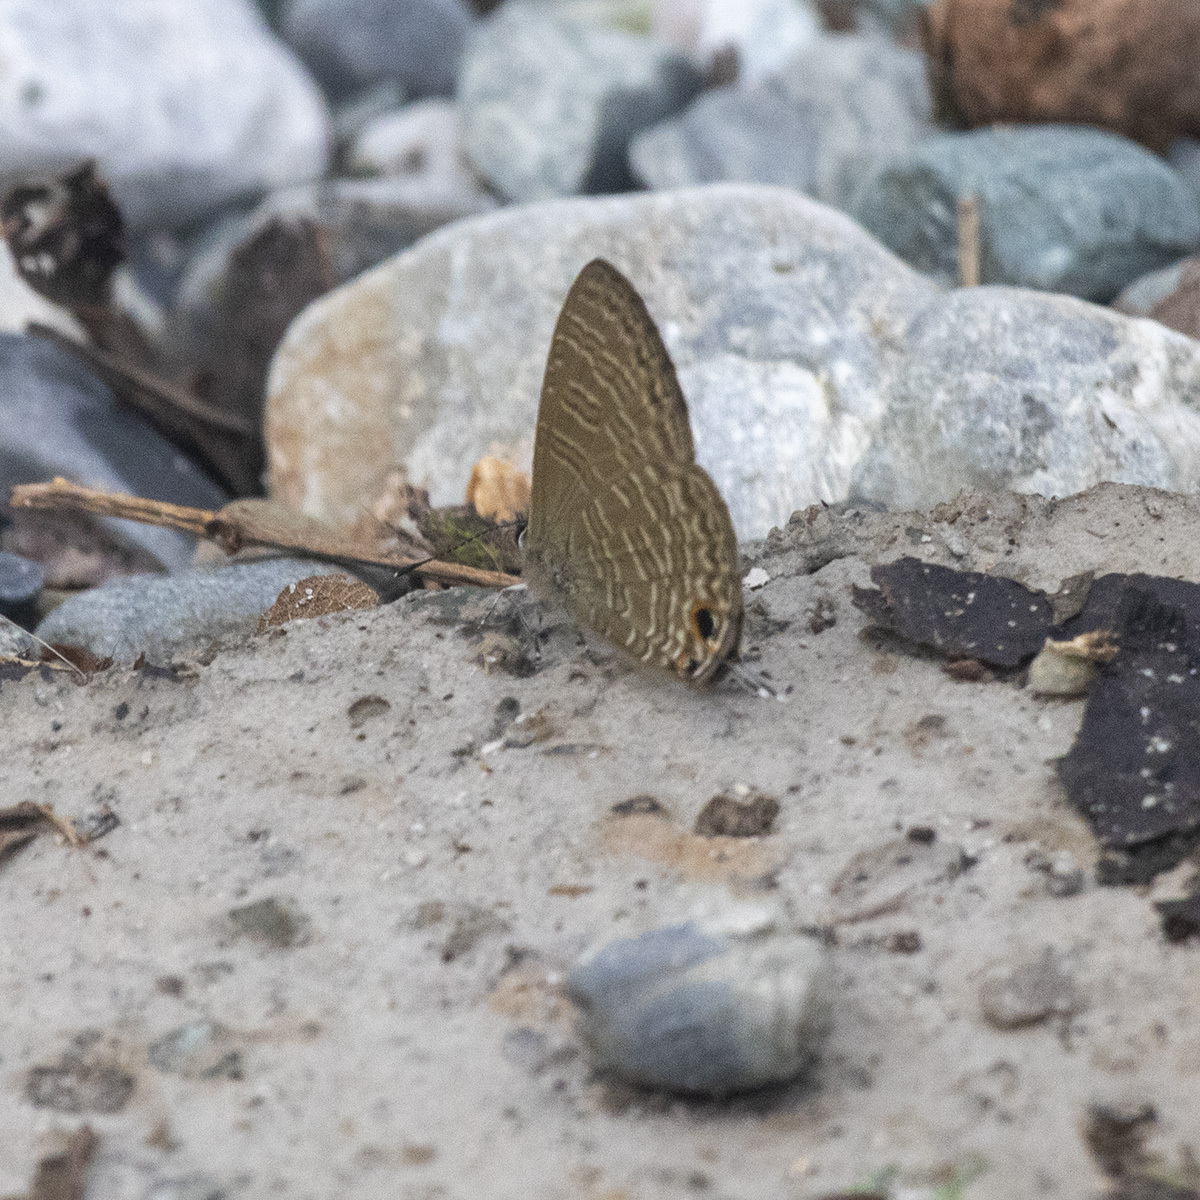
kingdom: Animalia
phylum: Arthropoda
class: Insecta
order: Lepidoptera
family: Lycaenidae
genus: Nacaduba
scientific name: Nacaduba berenice
